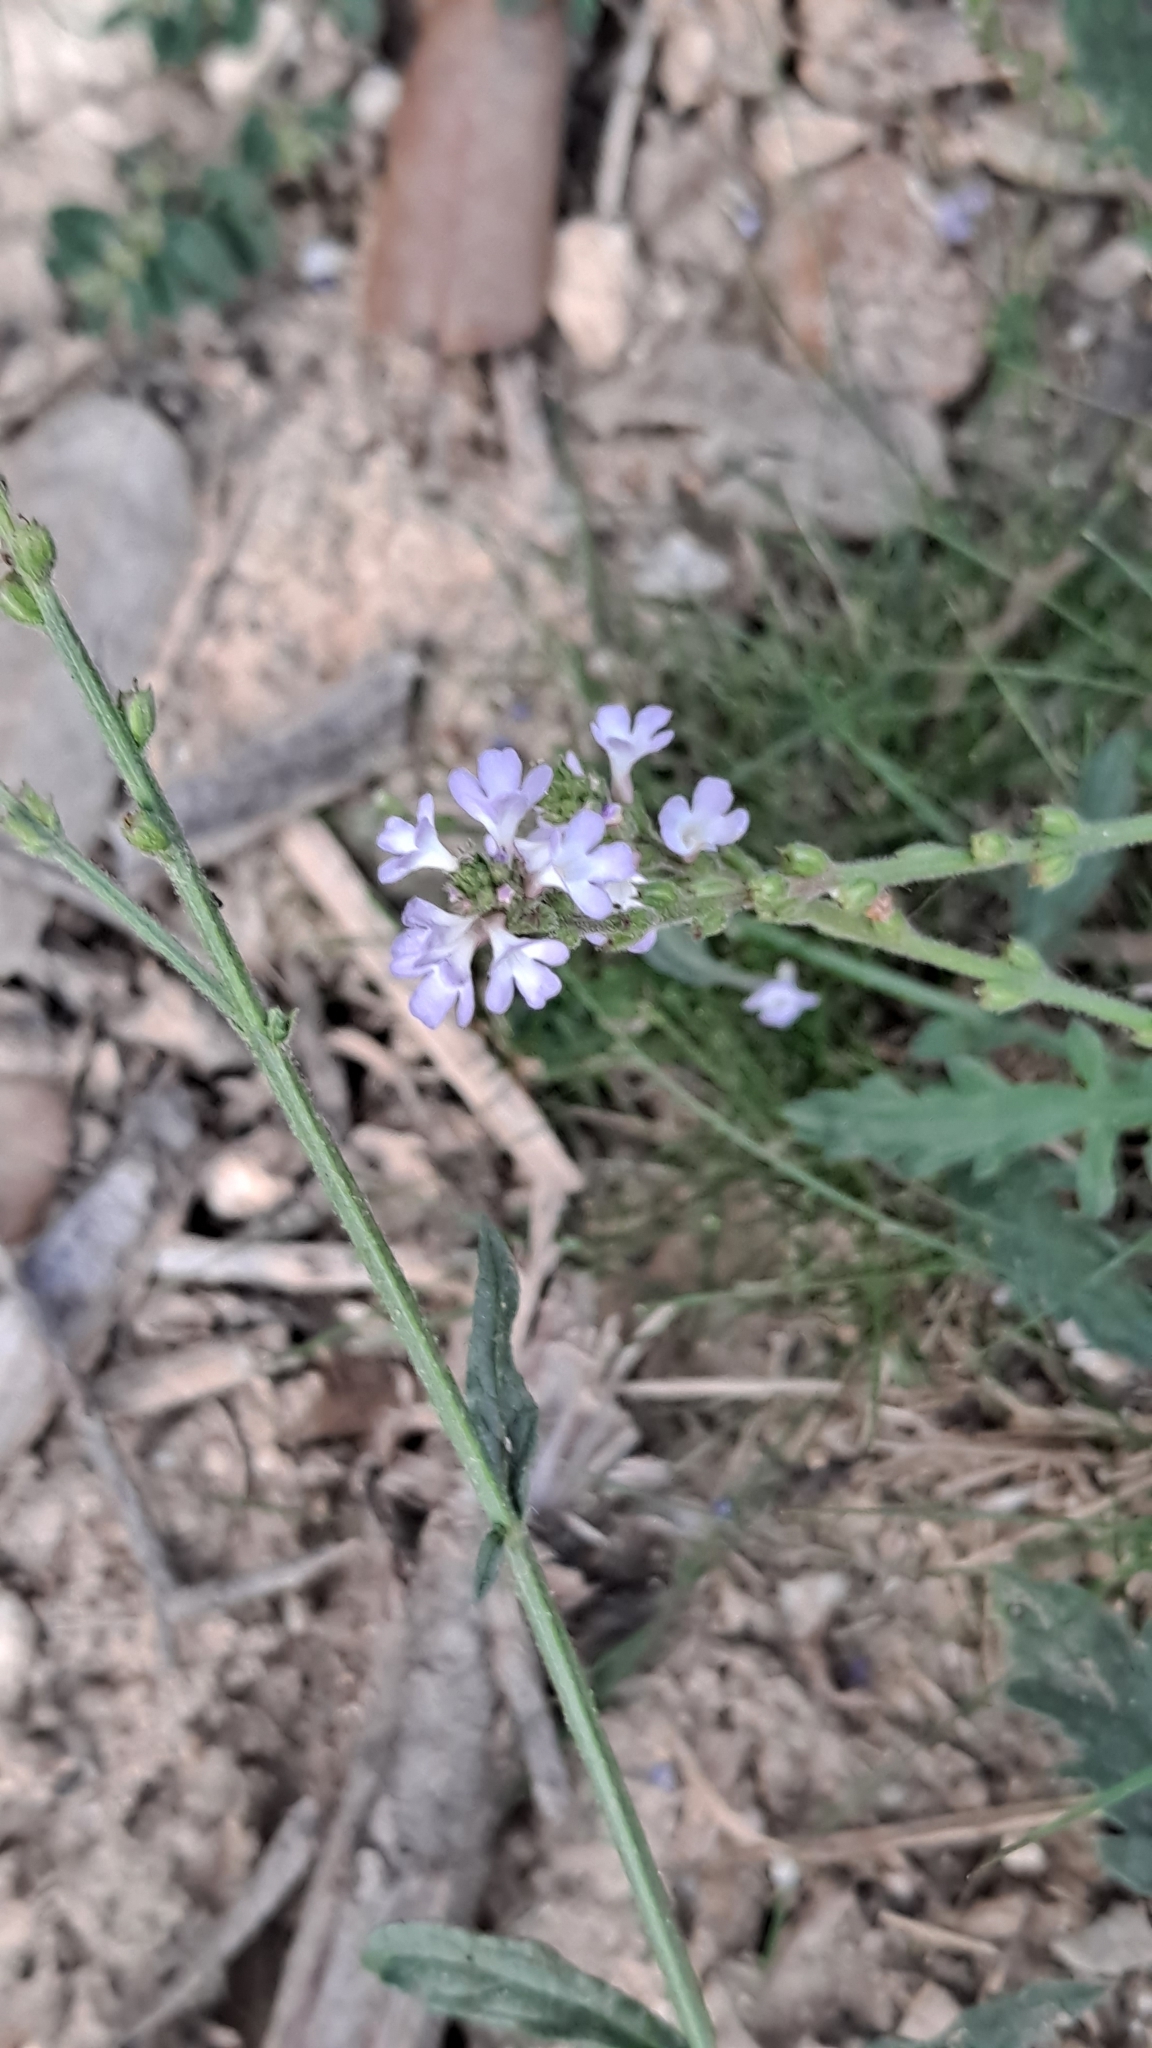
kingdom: Plantae
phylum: Tracheophyta
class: Magnoliopsida
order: Lamiales
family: Verbenaceae
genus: Verbena
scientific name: Verbena officinalis
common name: Vervain
